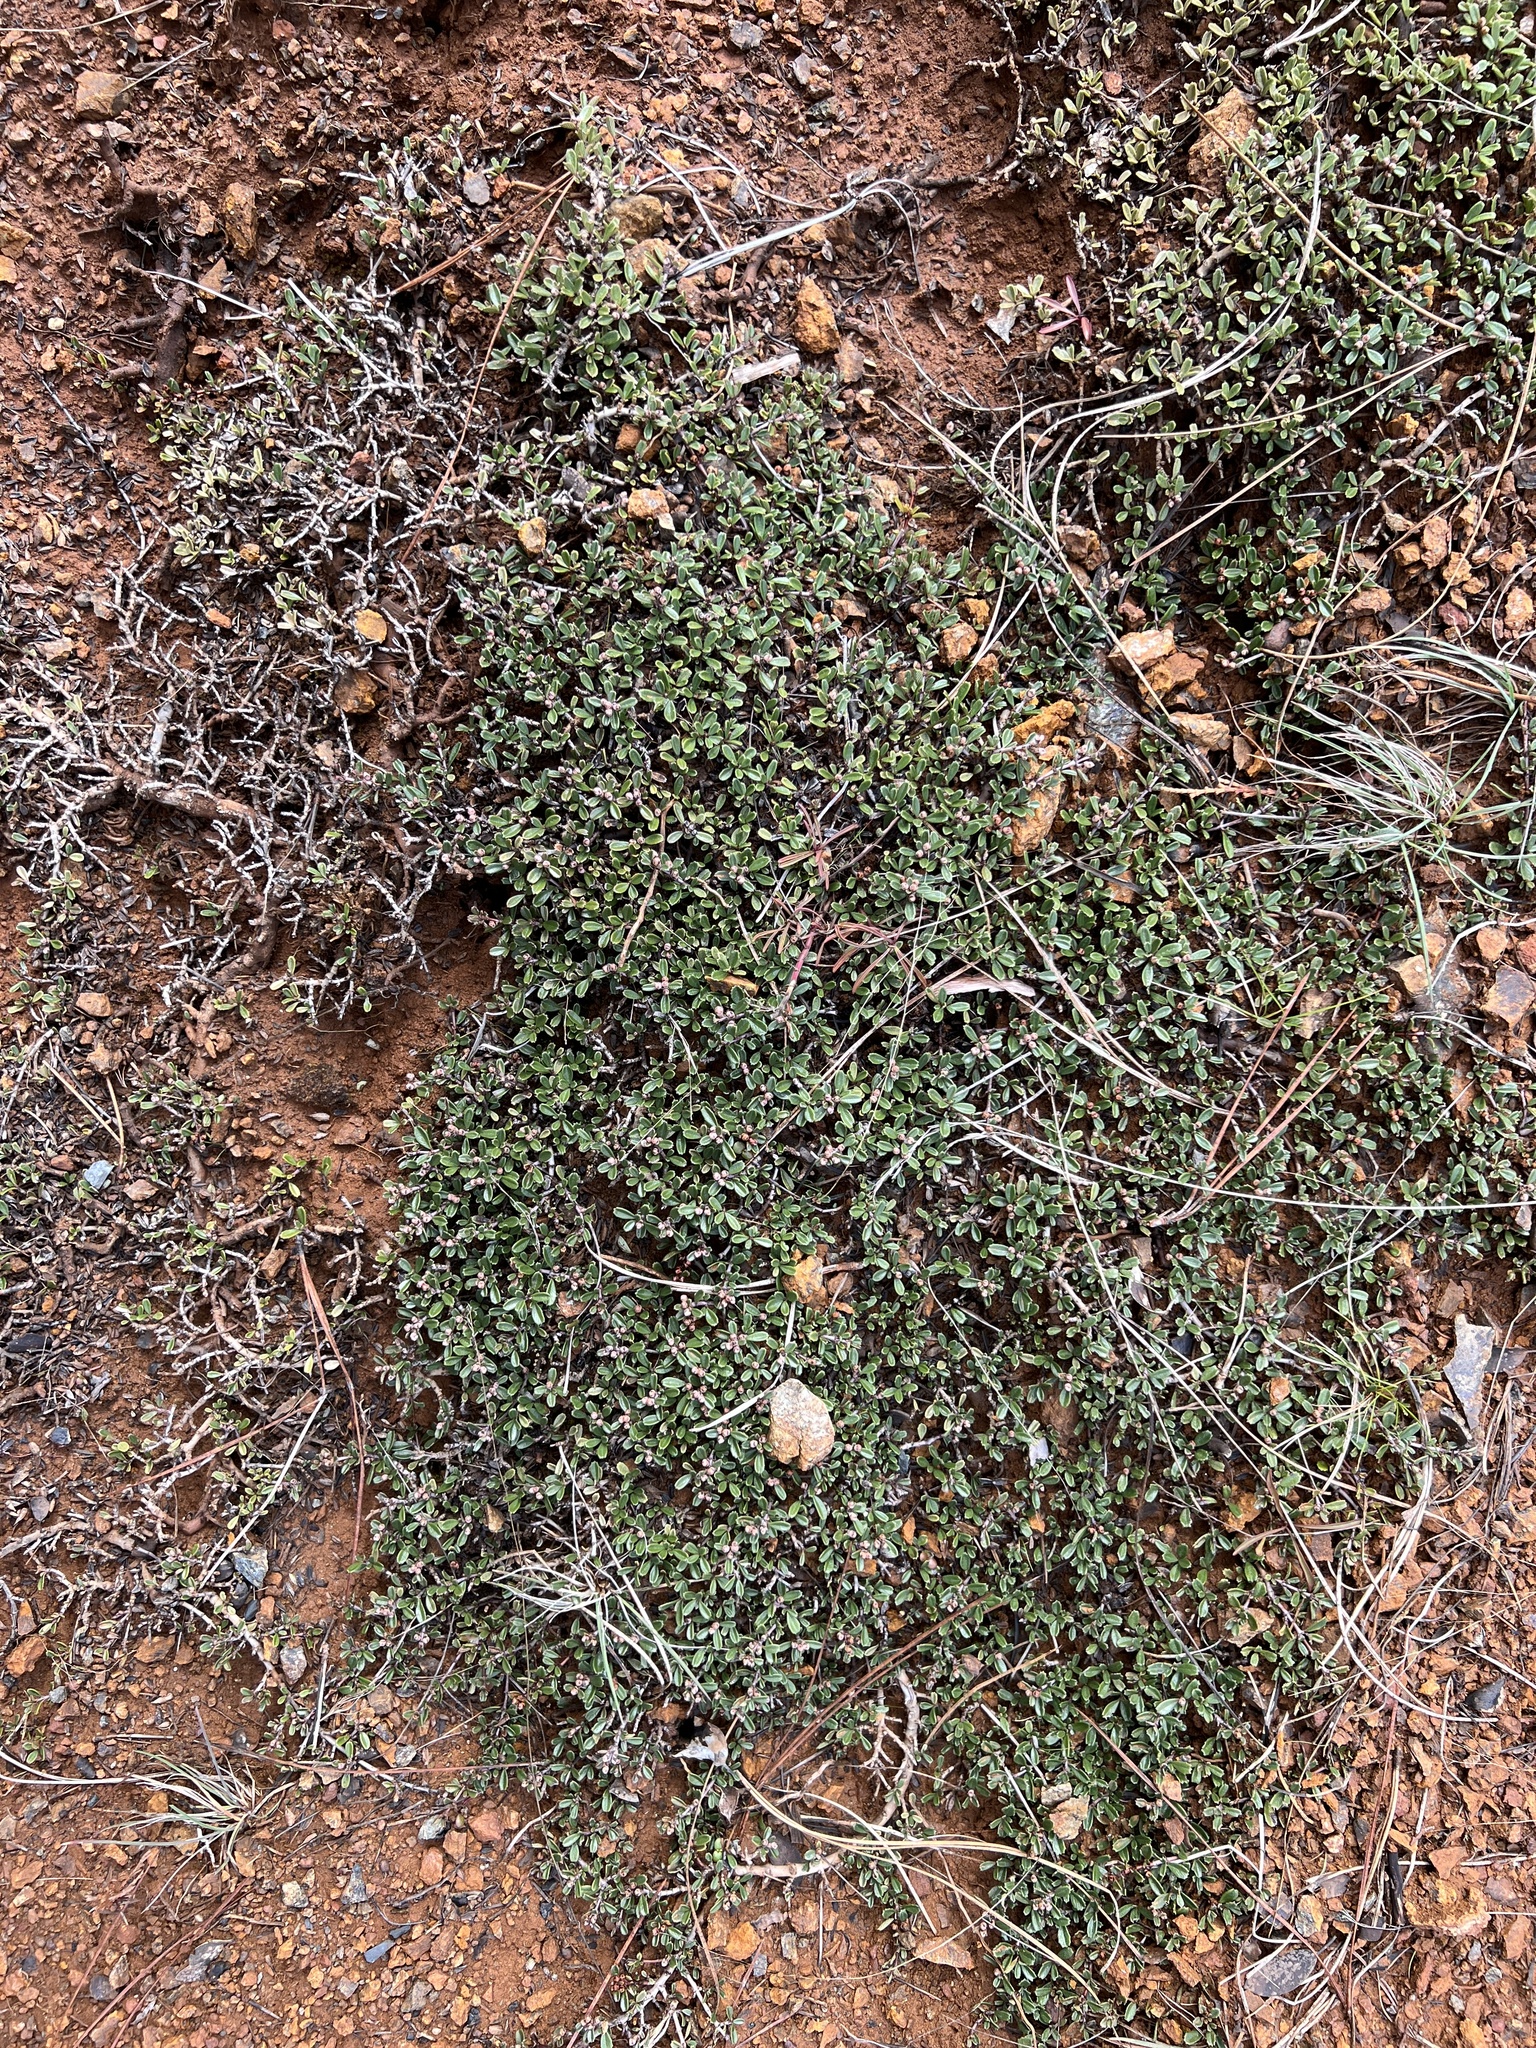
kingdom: Plantae
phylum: Tracheophyta
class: Magnoliopsida
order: Rosales
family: Rhamnaceae
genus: Ceanothus
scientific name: Ceanothus pumilus
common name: Siskiyou-mat
